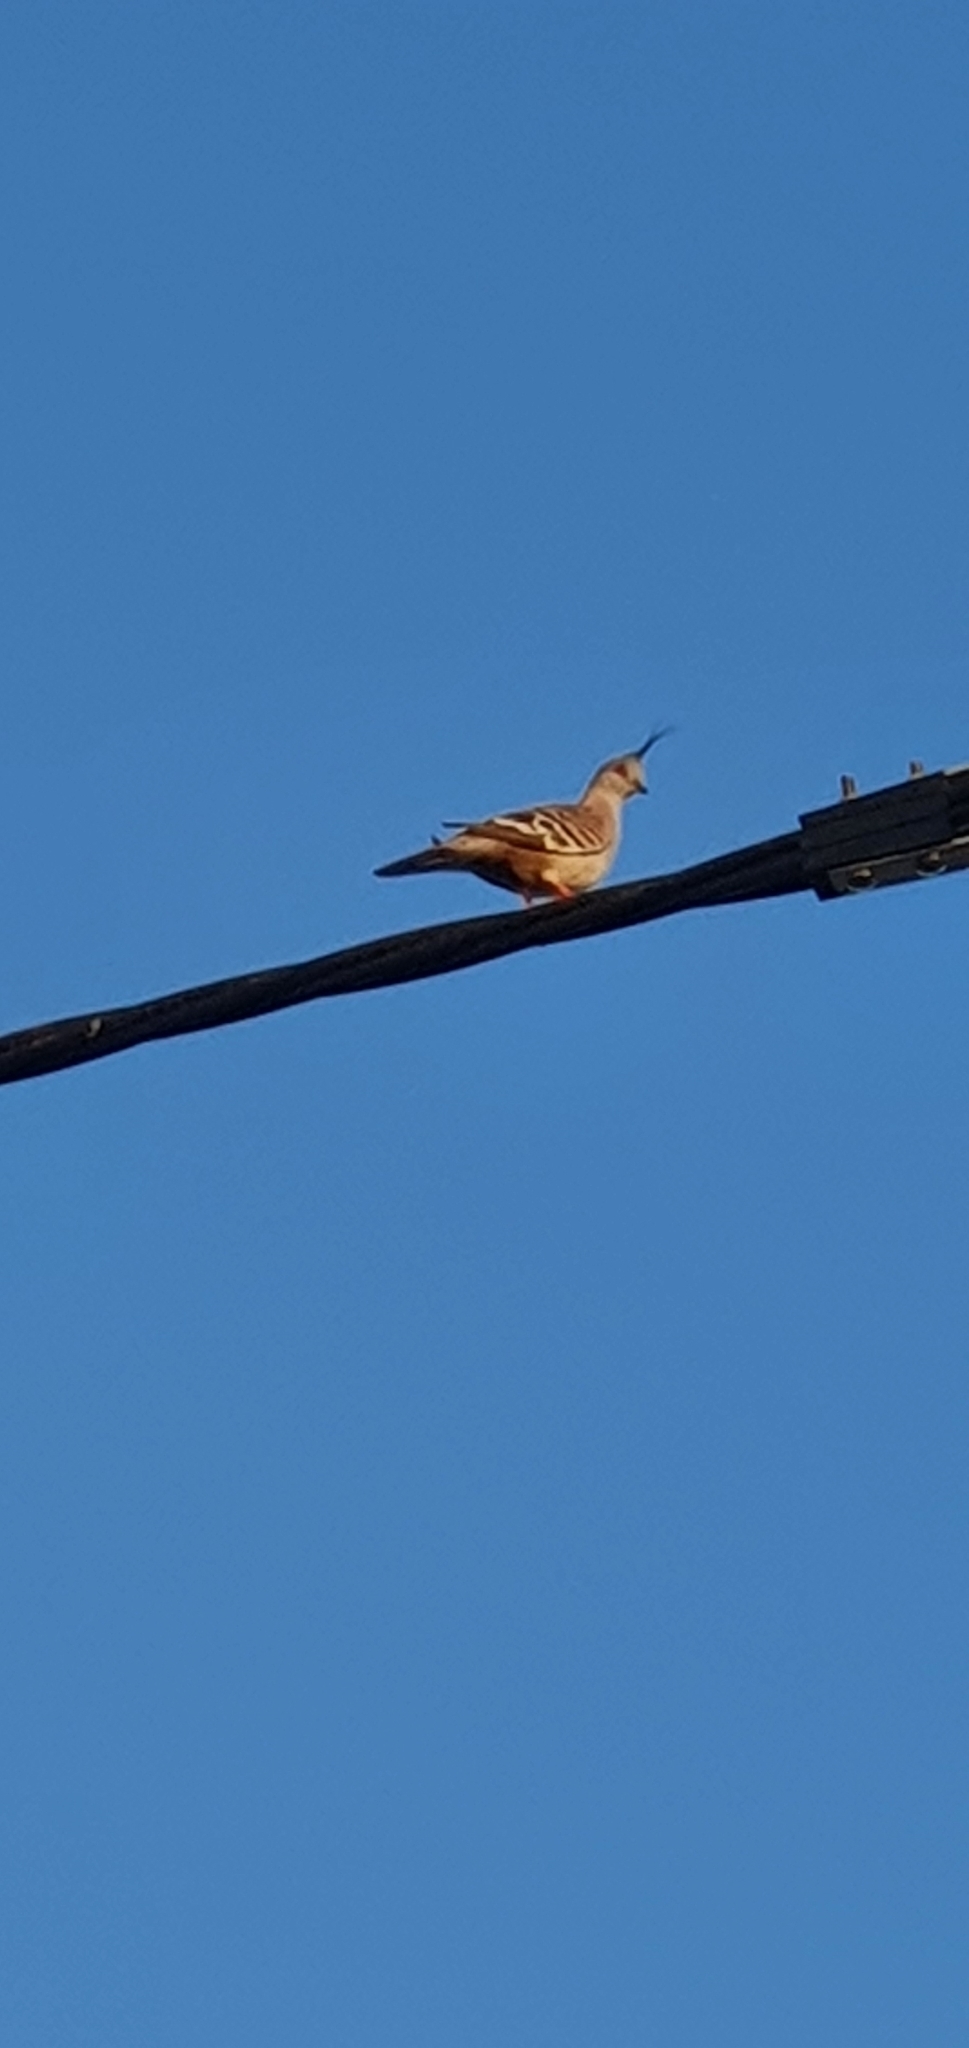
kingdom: Animalia
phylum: Chordata
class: Aves
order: Columbiformes
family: Columbidae
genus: Ocyphaps
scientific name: Ocyphaps lophotes
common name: Crested pigeon
